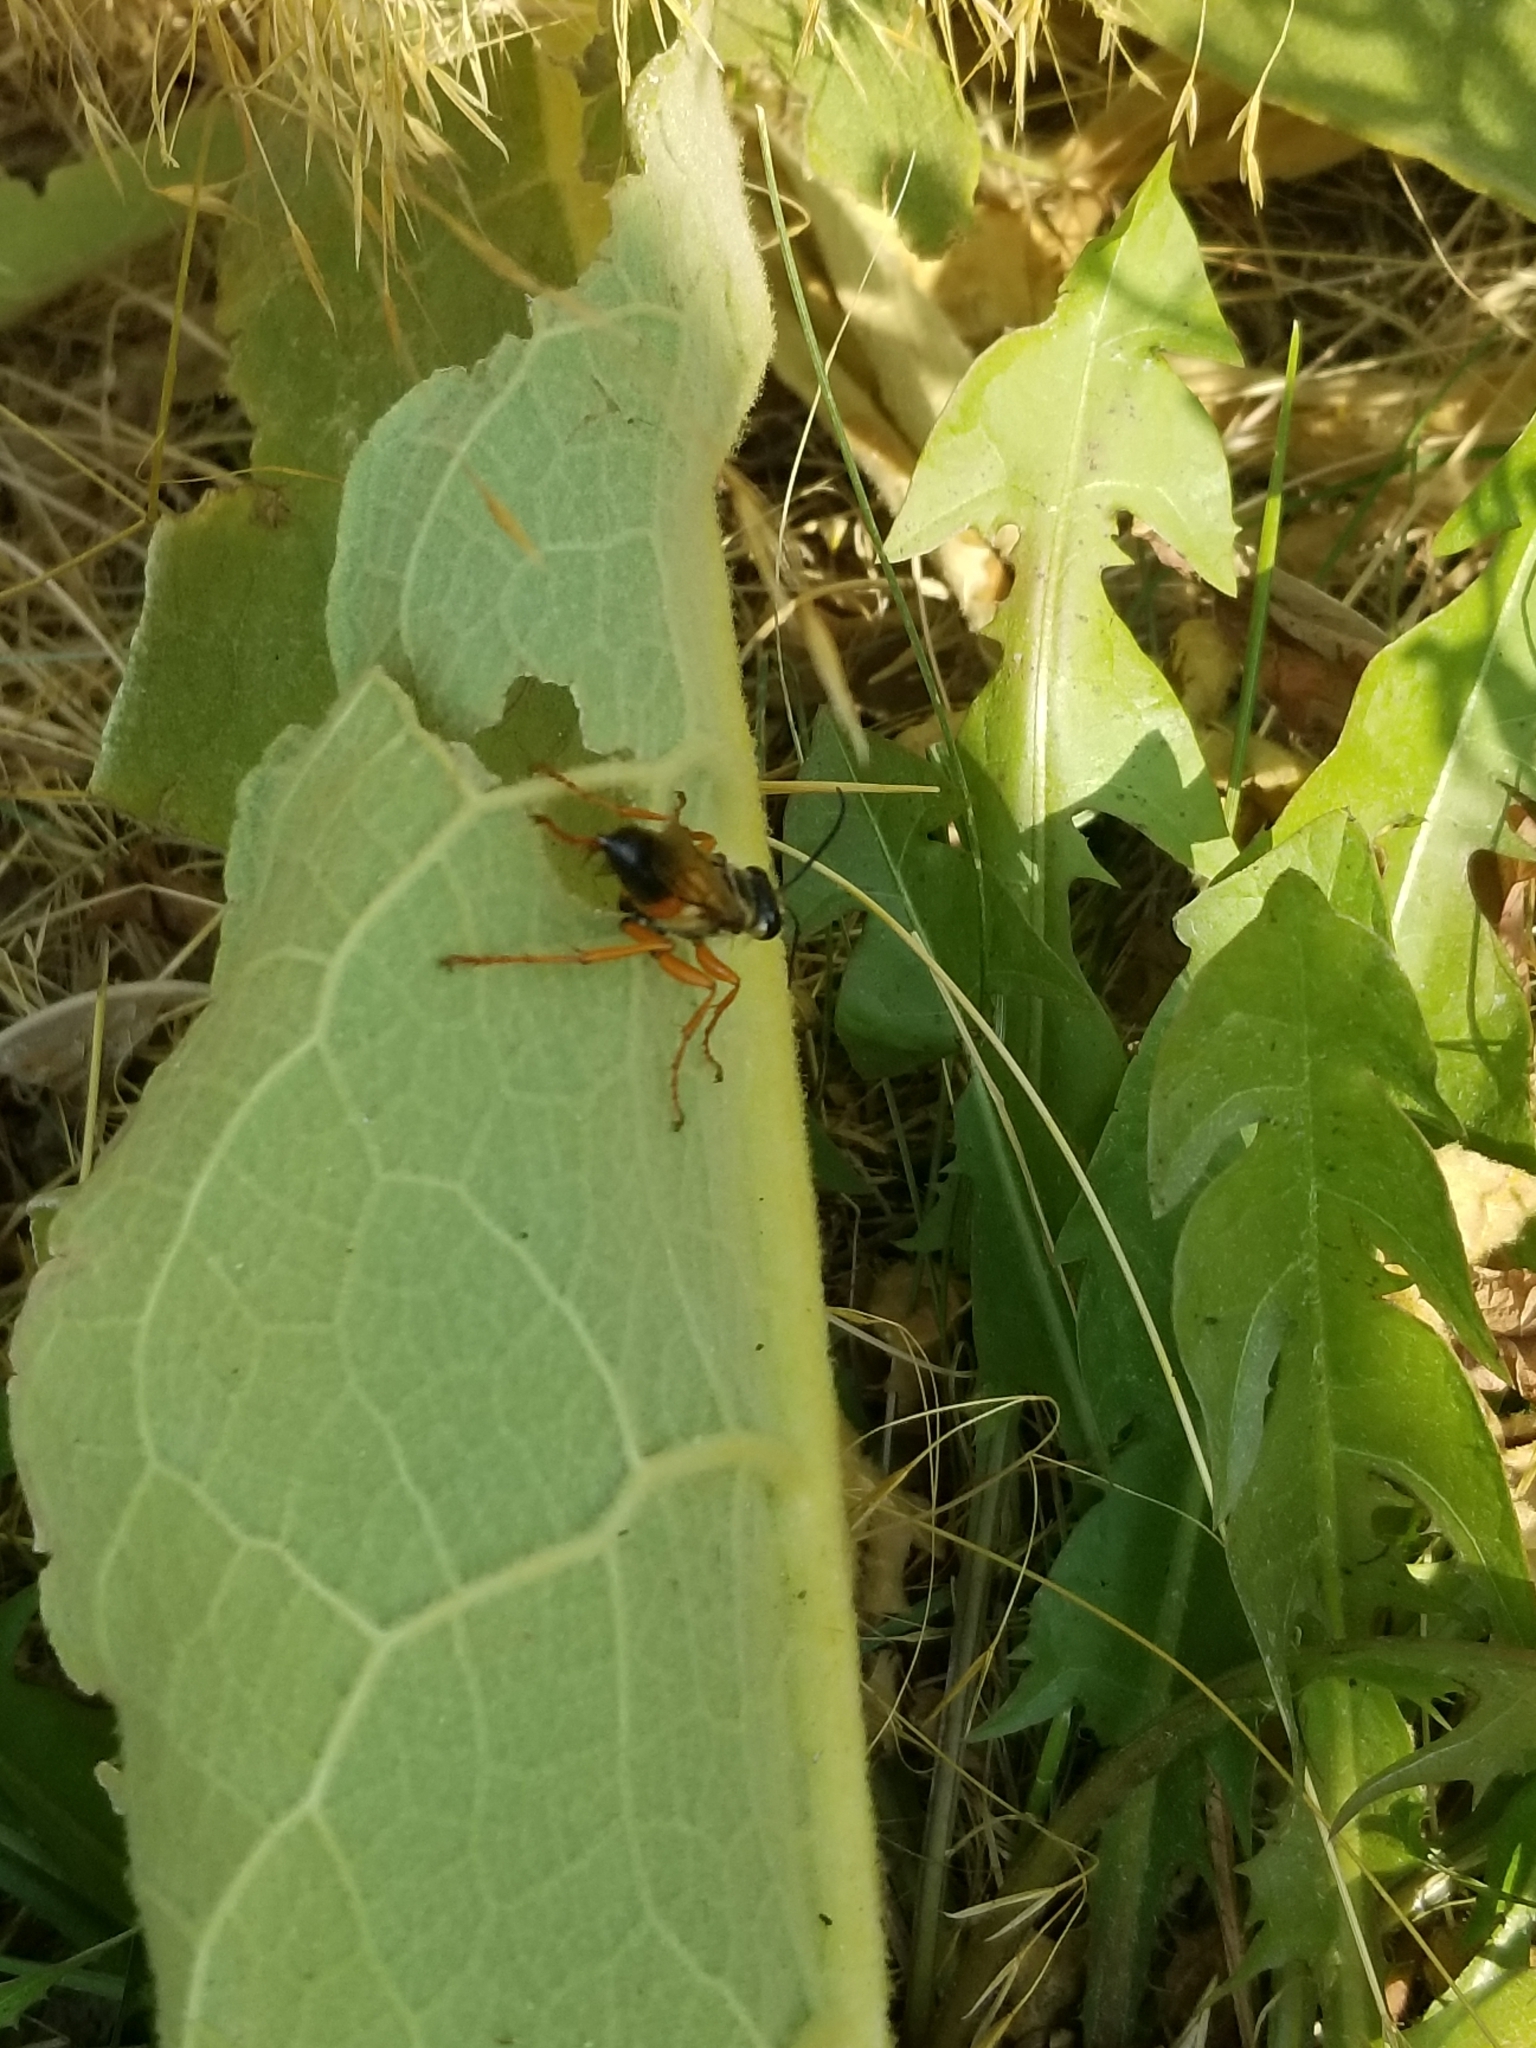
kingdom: Animalia
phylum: Arthropoda
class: Insecta
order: Hymenoptera
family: Sphecidae
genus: Sphex
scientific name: Sphex ichneumoneus
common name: Great golden digger wasp
